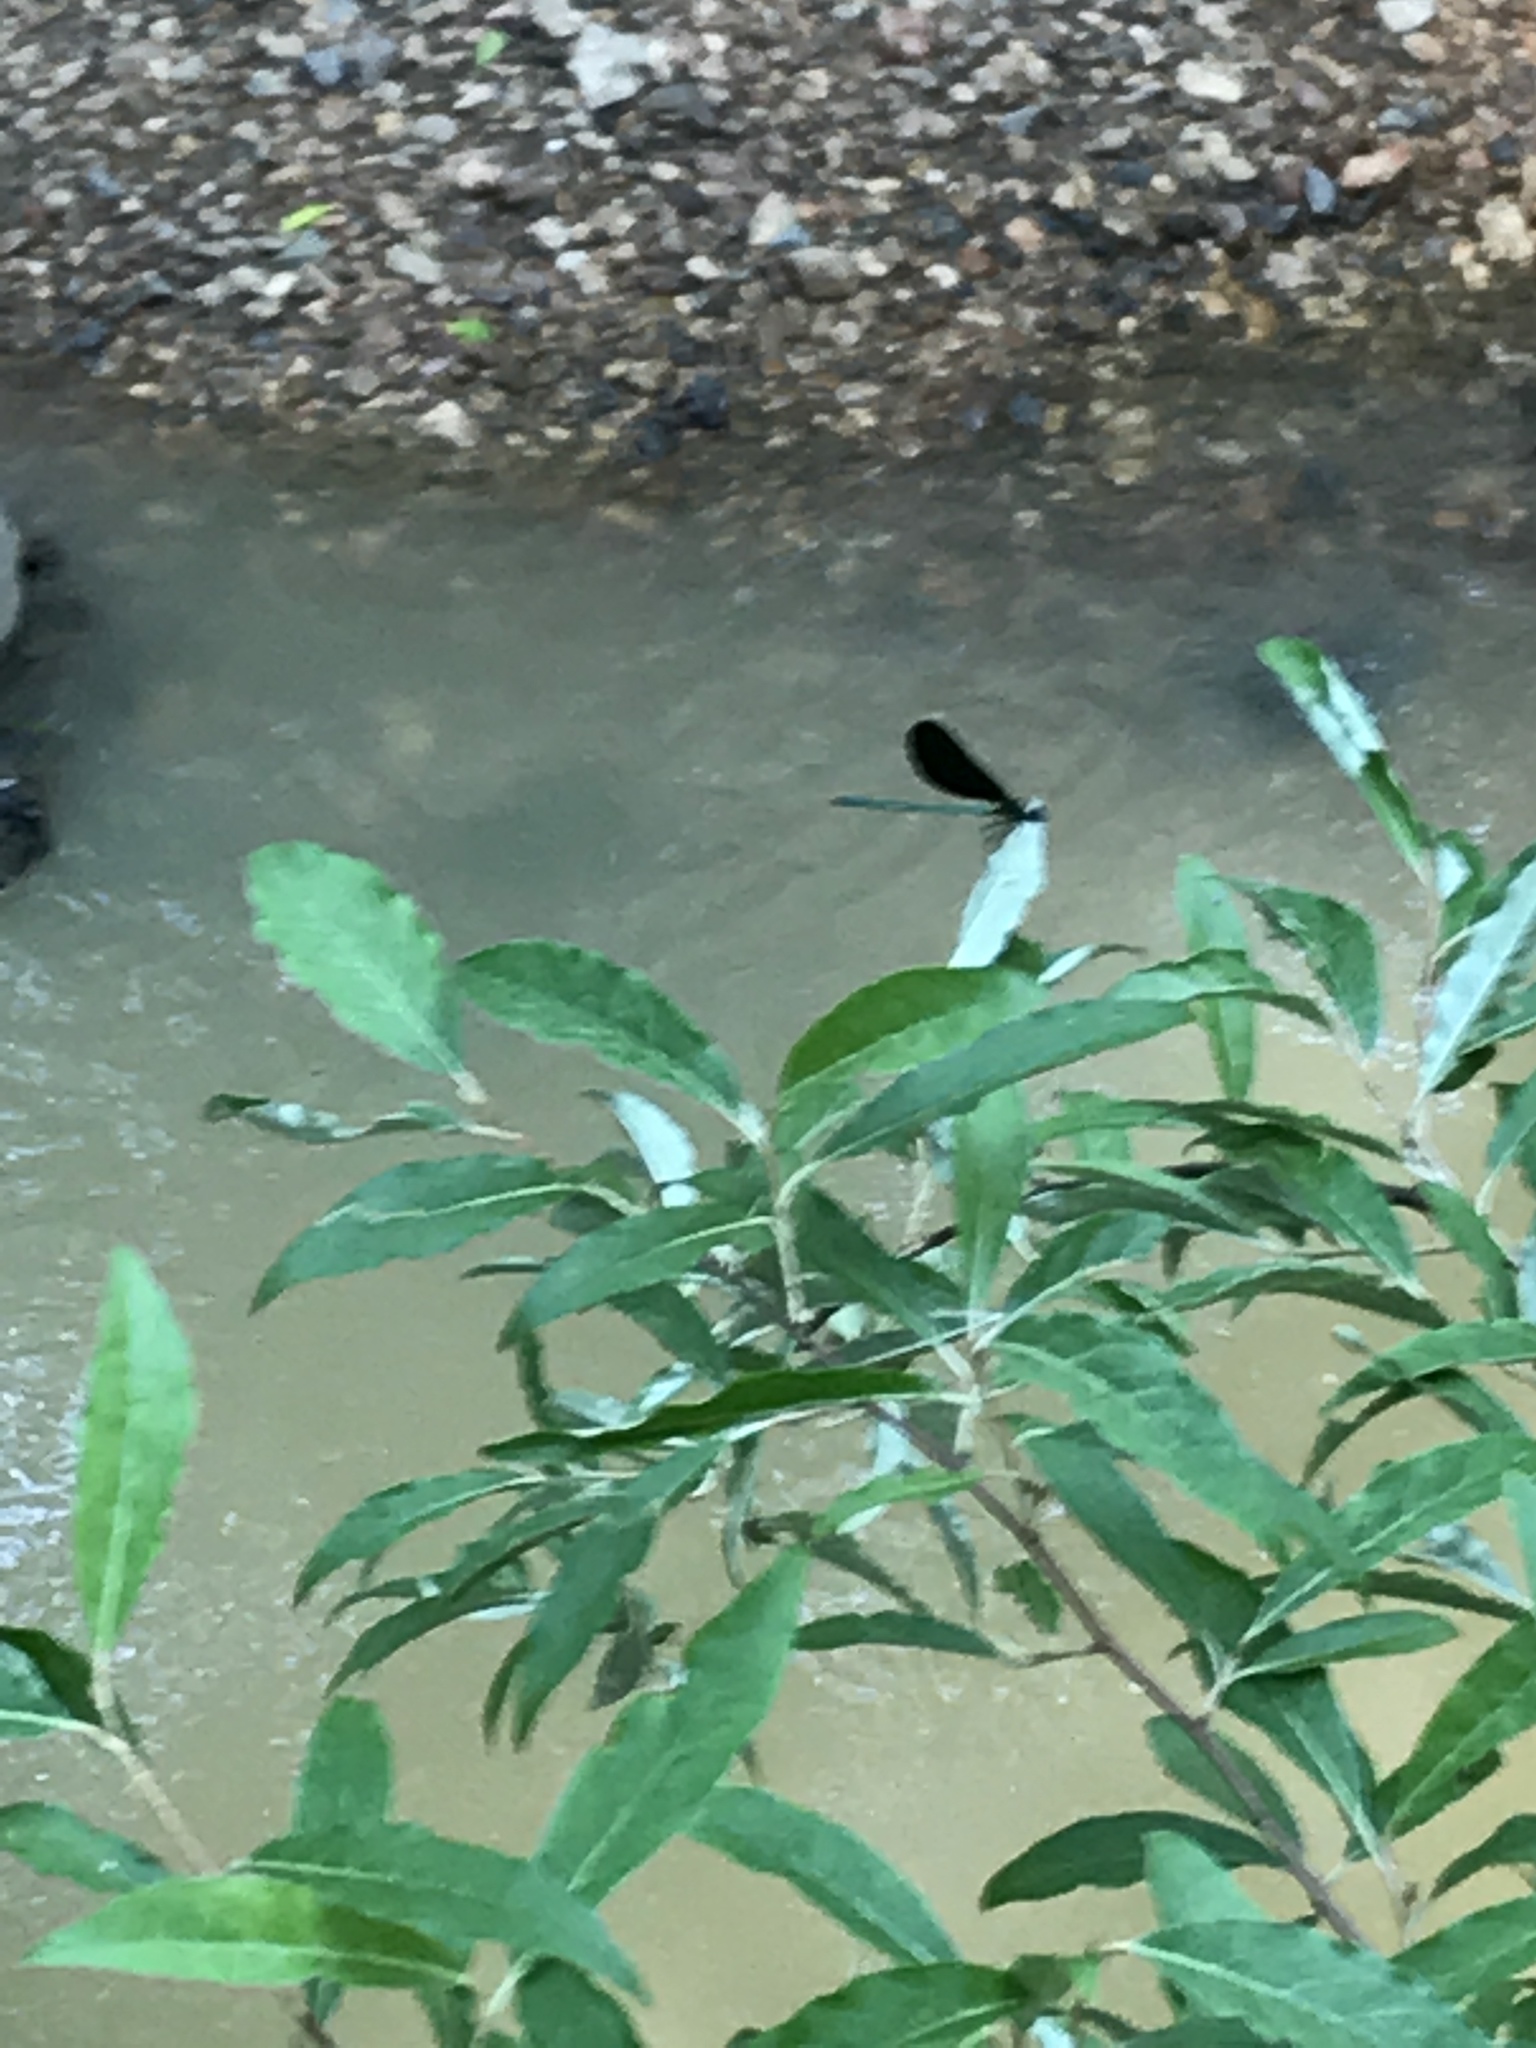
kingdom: Animalia
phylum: Arthropoda
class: Insecta
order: Odonata
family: Calopterygidae
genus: Calopteryx
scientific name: Calopteryx maculata
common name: Ebony jewelwing
